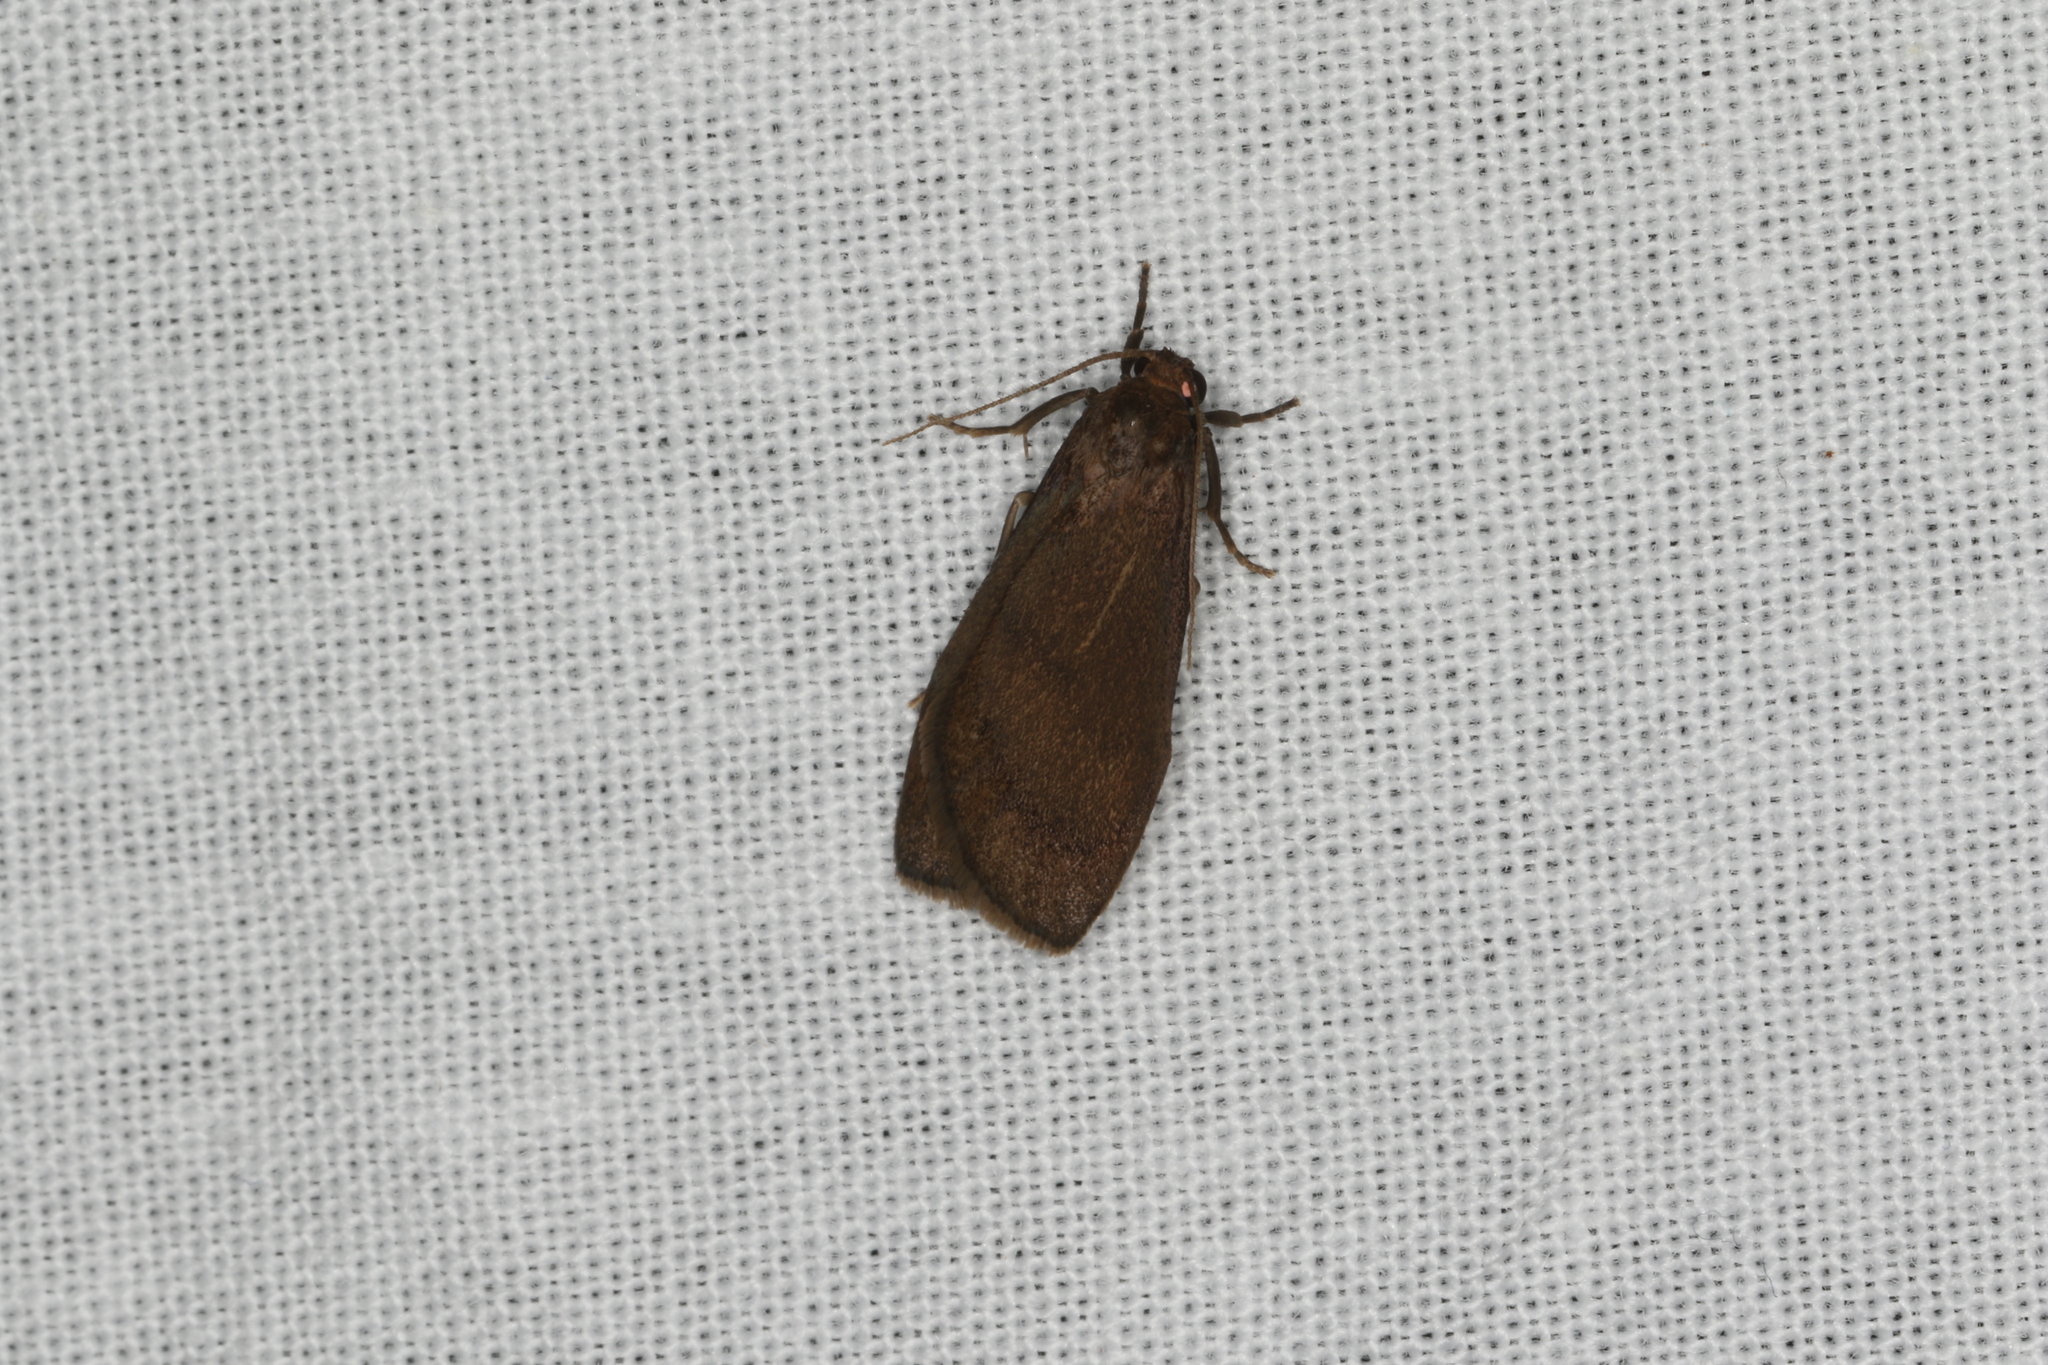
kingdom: Animalia
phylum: Arthropoda
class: Insecta
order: Lepidoptera
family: Erebidae
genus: Lambula
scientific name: Lambula obliquilinea
